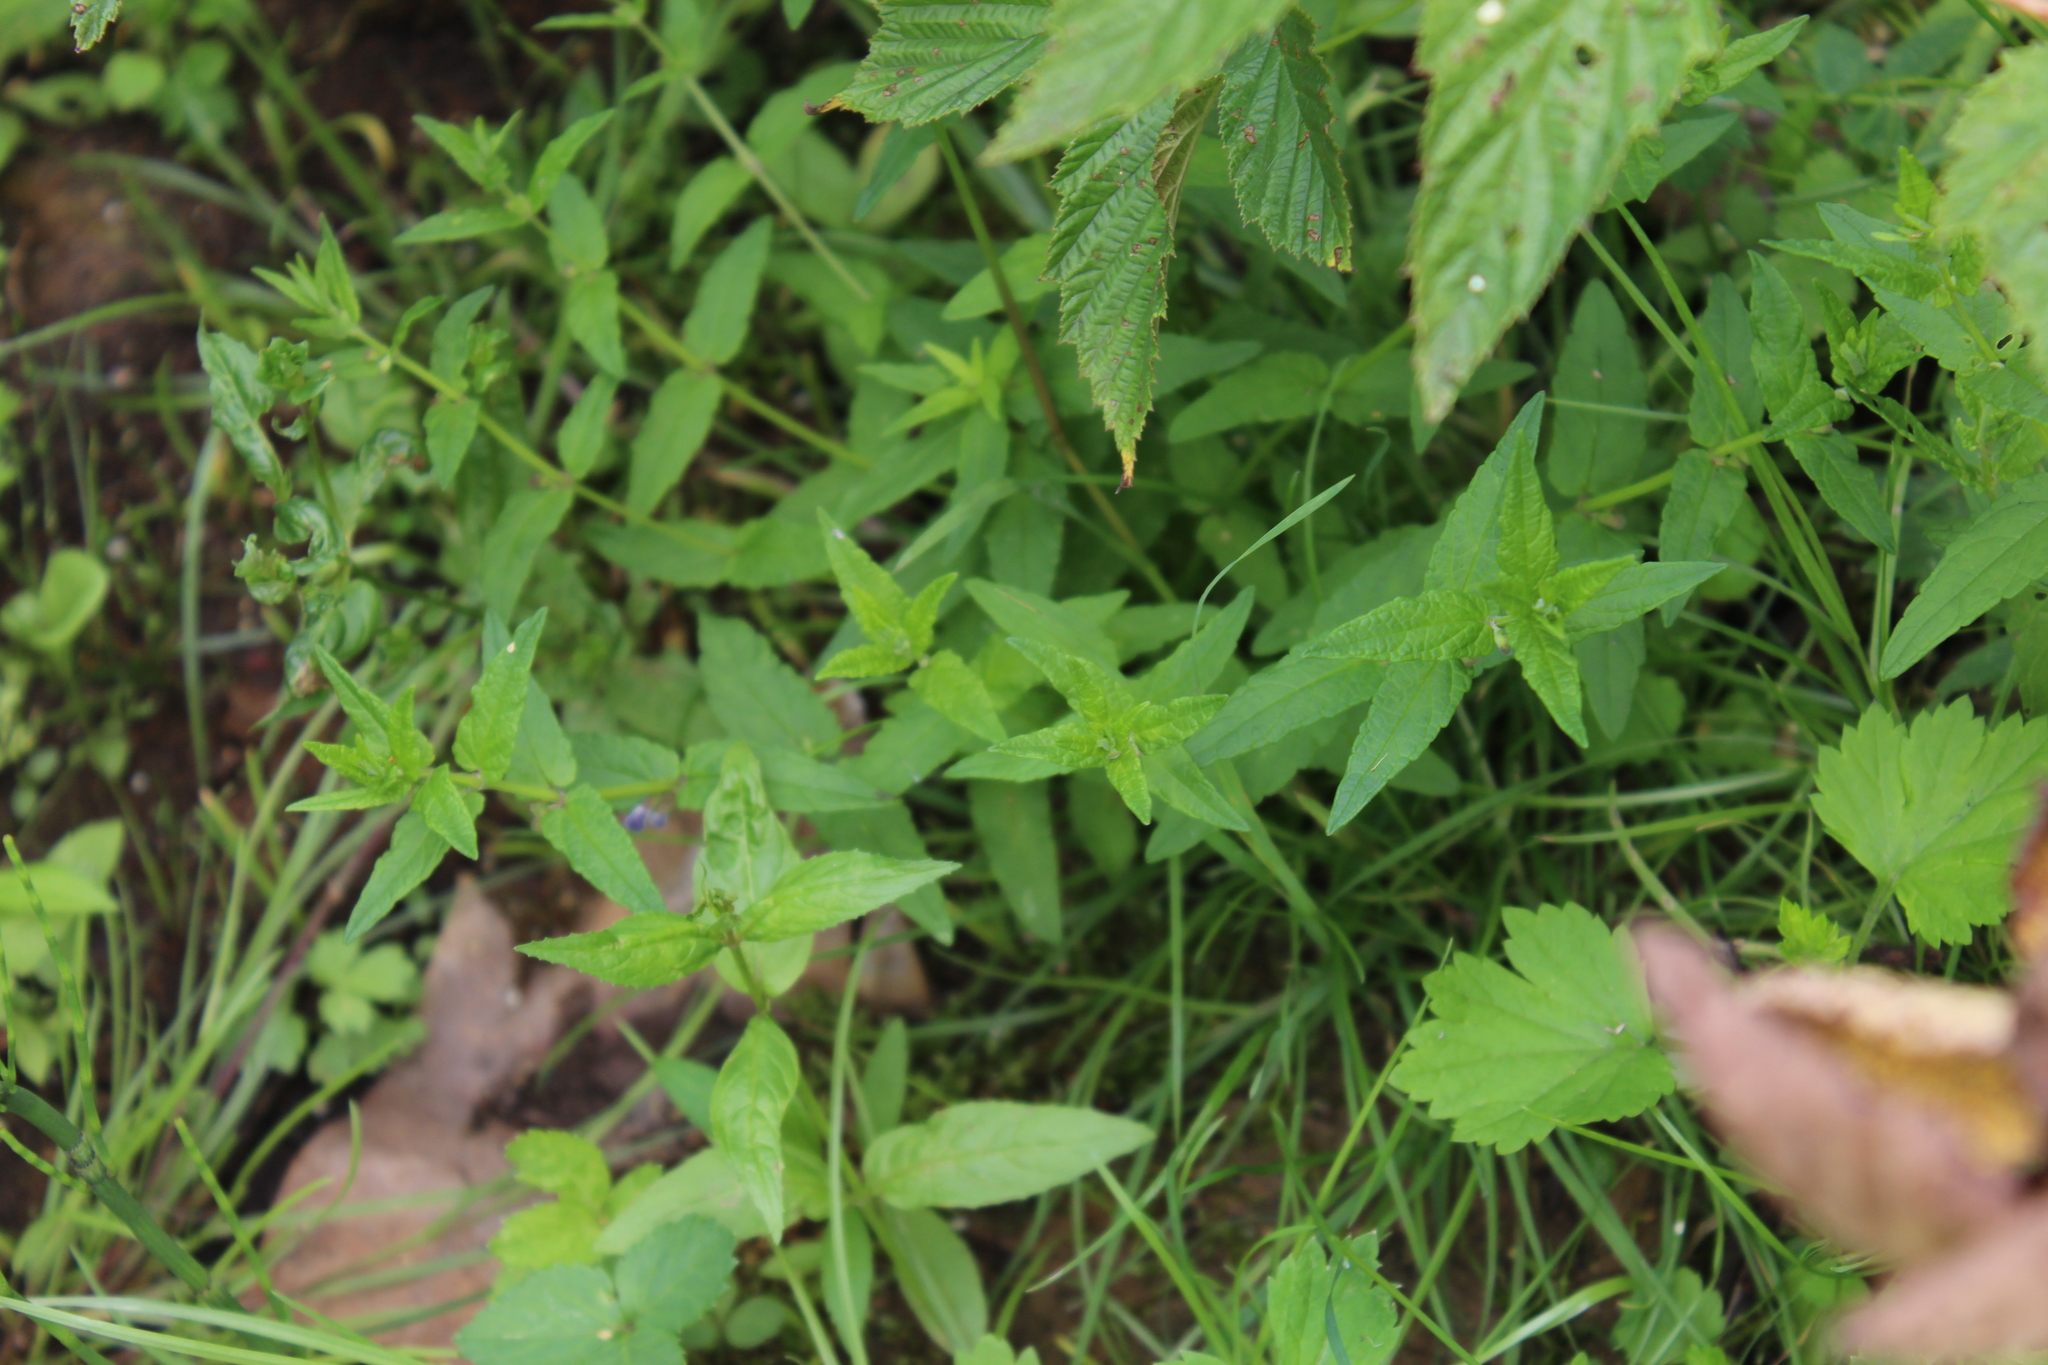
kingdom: Plantae
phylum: Tracheophyta
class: Magnoliopsida
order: Lamiales
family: Lamiaceae
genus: Scutellaria
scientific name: Scutellaria galericulata
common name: Skullcap
